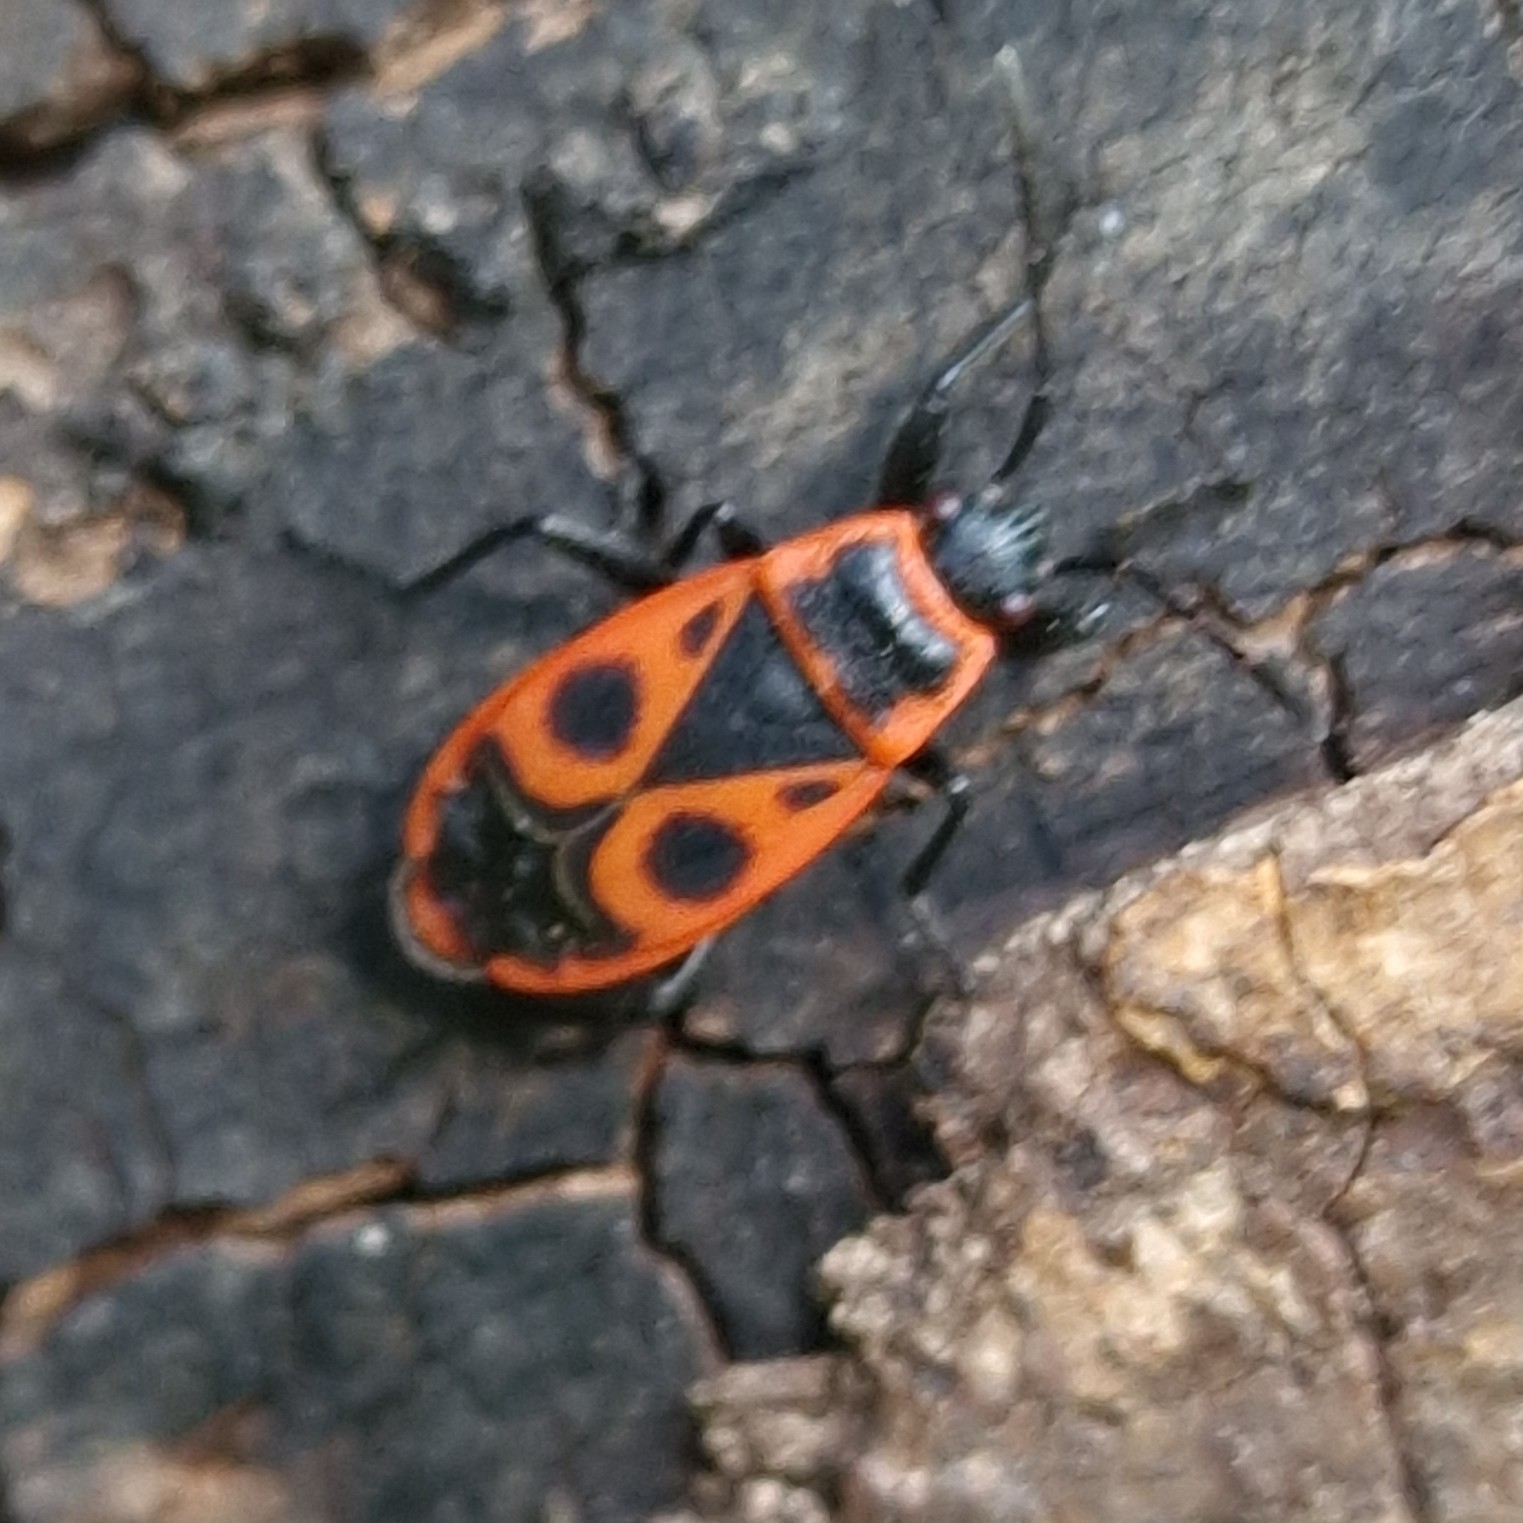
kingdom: Animalia
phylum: Arthropoda
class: Insecta
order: Hemiptera
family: Pyrrhocoridae
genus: Pyrrhocoris
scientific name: Pyrrhocoris apterus
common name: Firebug
